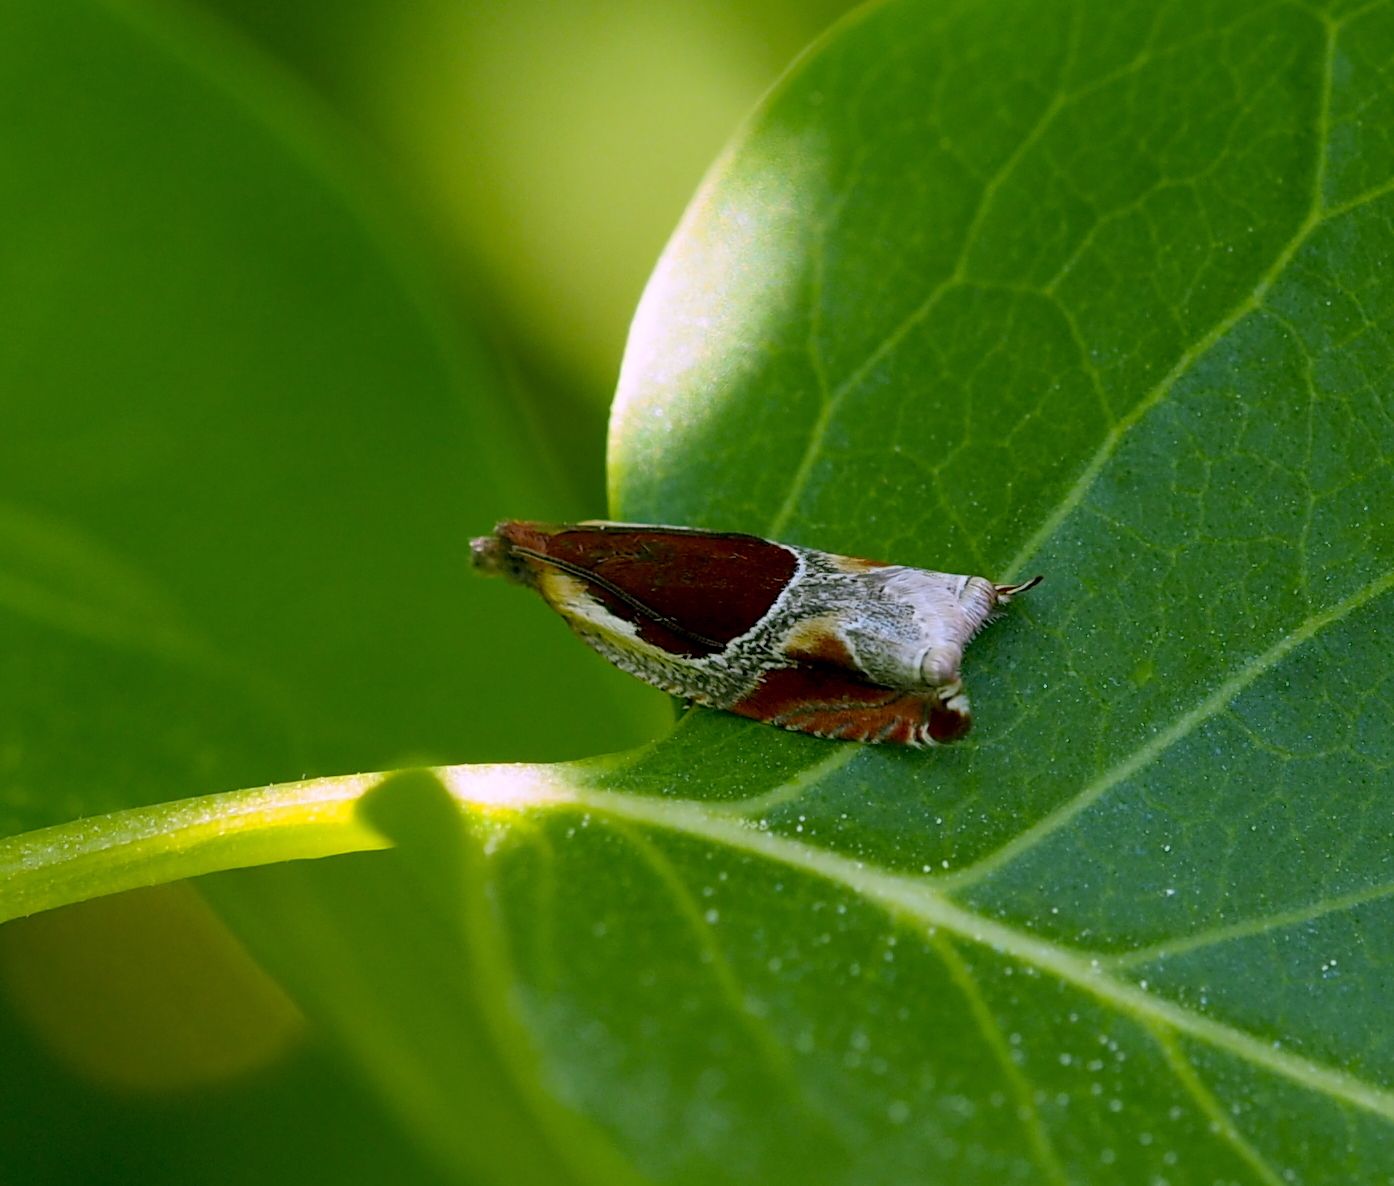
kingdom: Animalia
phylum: Arthropoda
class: Insecta
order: Lepidoptera
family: Tortricidae
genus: Ancylis
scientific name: Ancylis unculana
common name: Buckthorn roller
